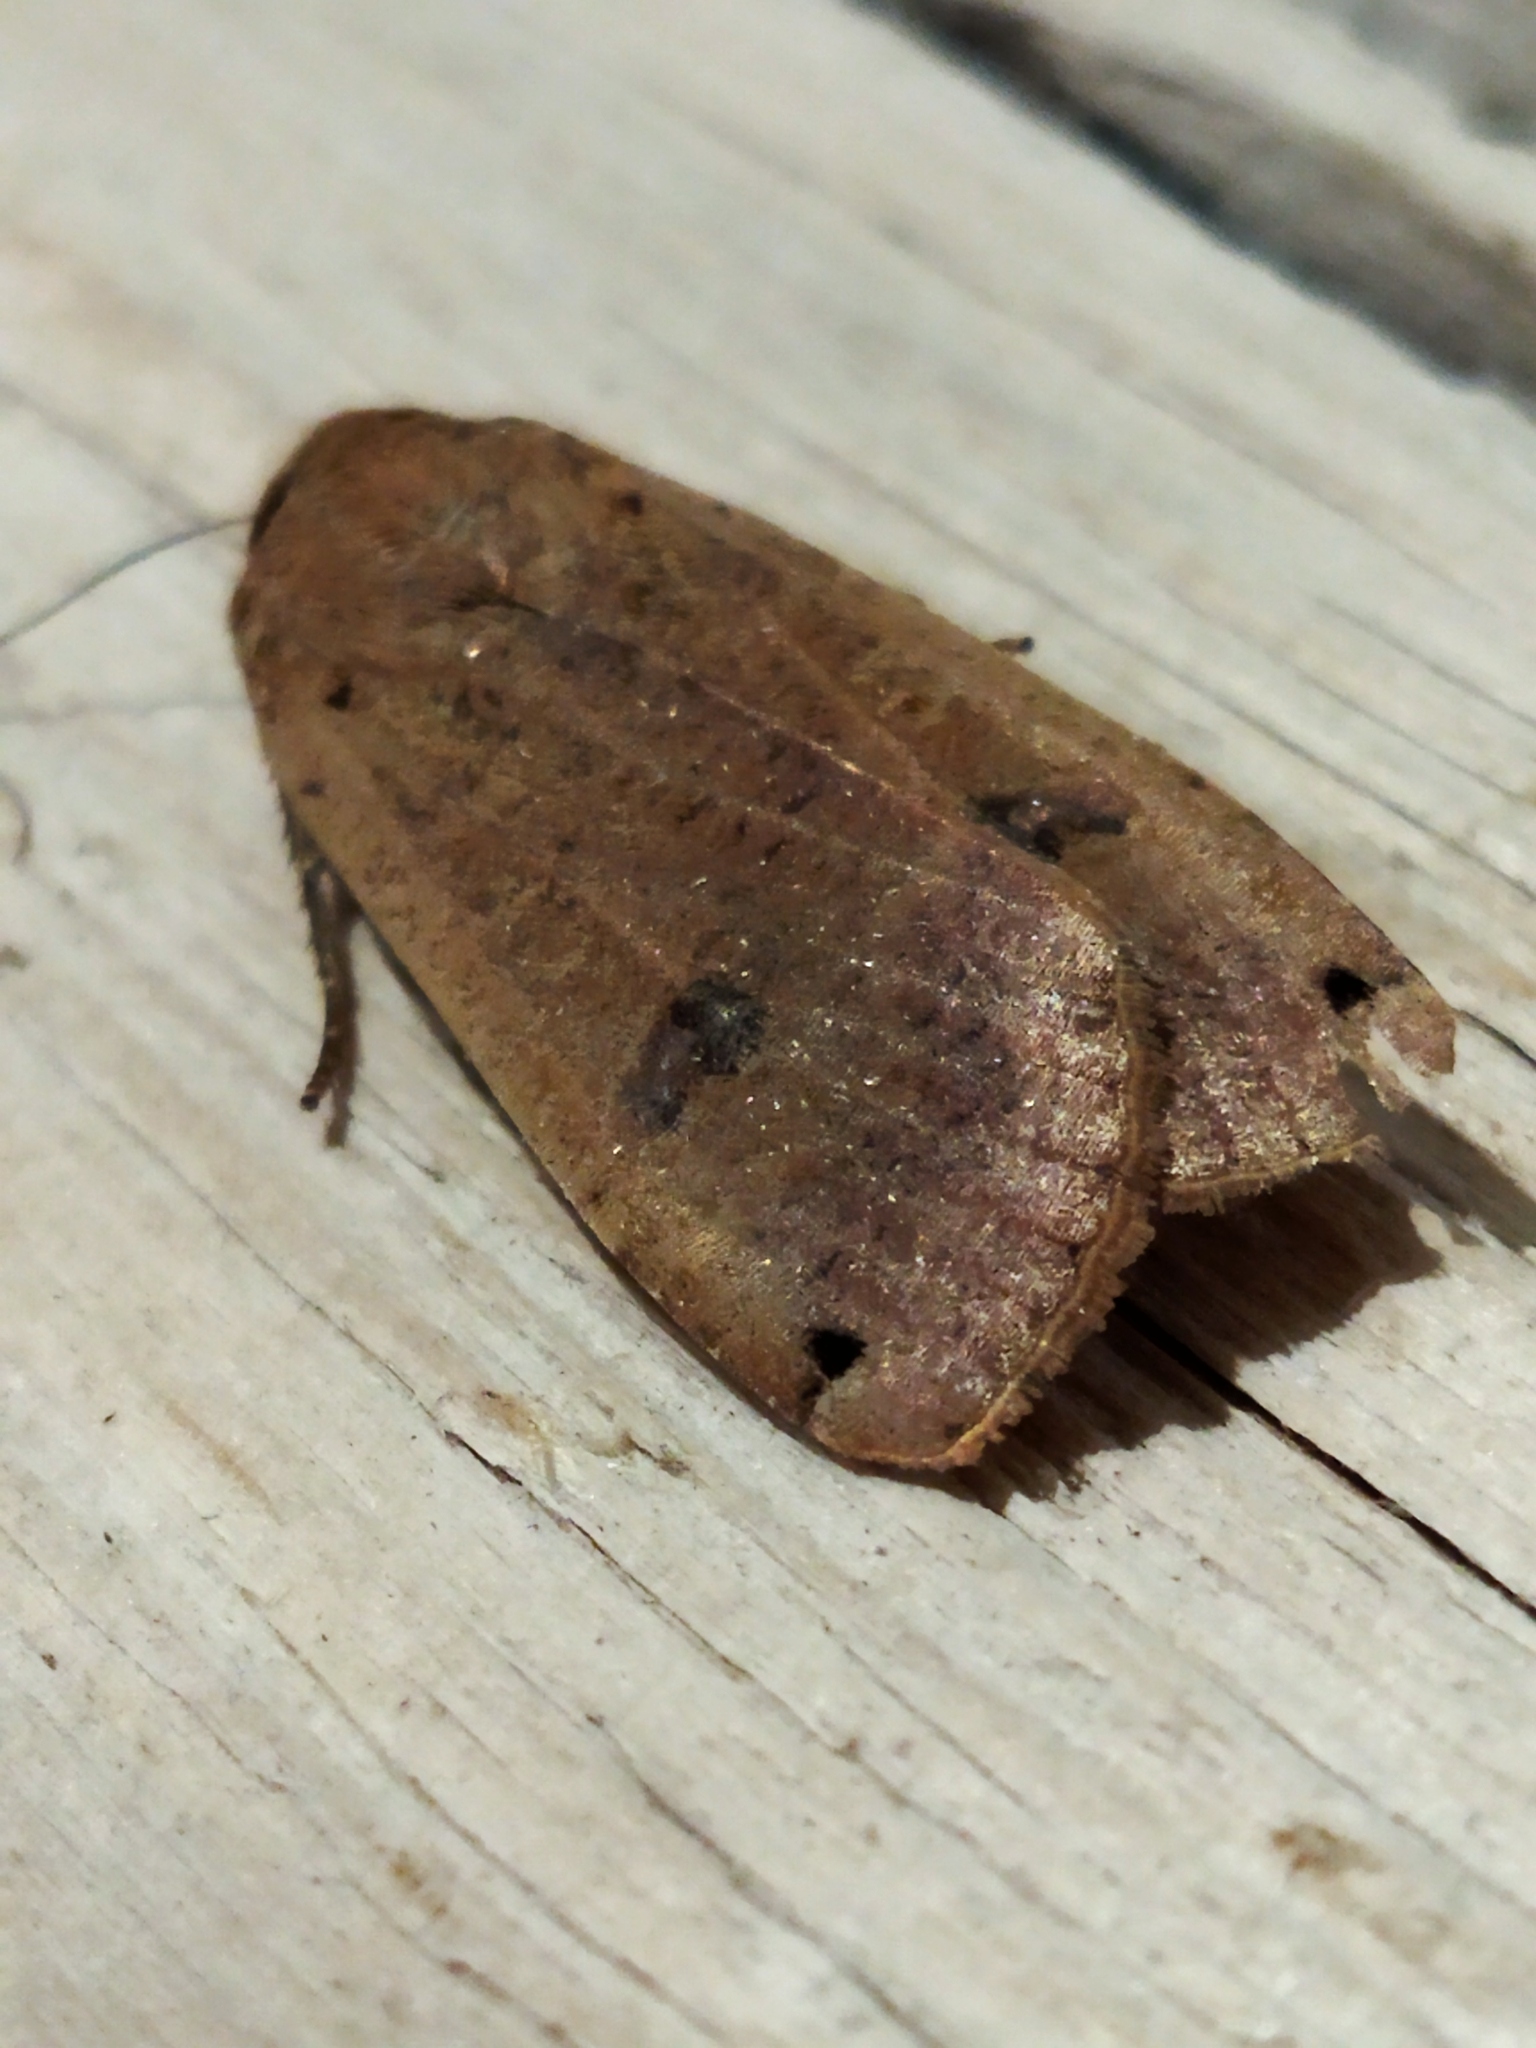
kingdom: Animalia
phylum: Arthropoda
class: Insecta
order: Lepidoptera
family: Noctuidae
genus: Noctua
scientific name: Noctua pronuba
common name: Large yellow underwing
